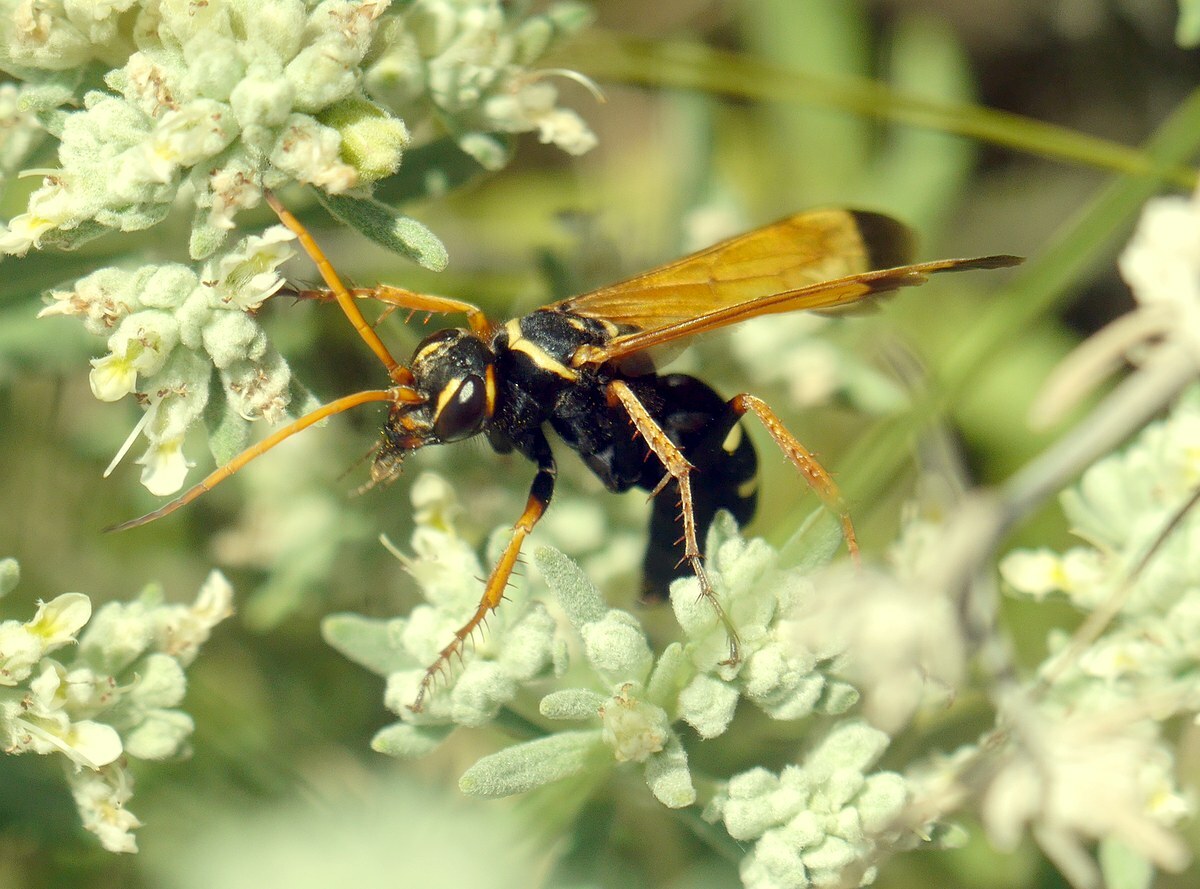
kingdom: Animalia
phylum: Arthropoda
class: Insecta
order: Hymenoptera
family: Pompilidae
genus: Parabatozonus
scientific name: Parabatozonus lacerticida
